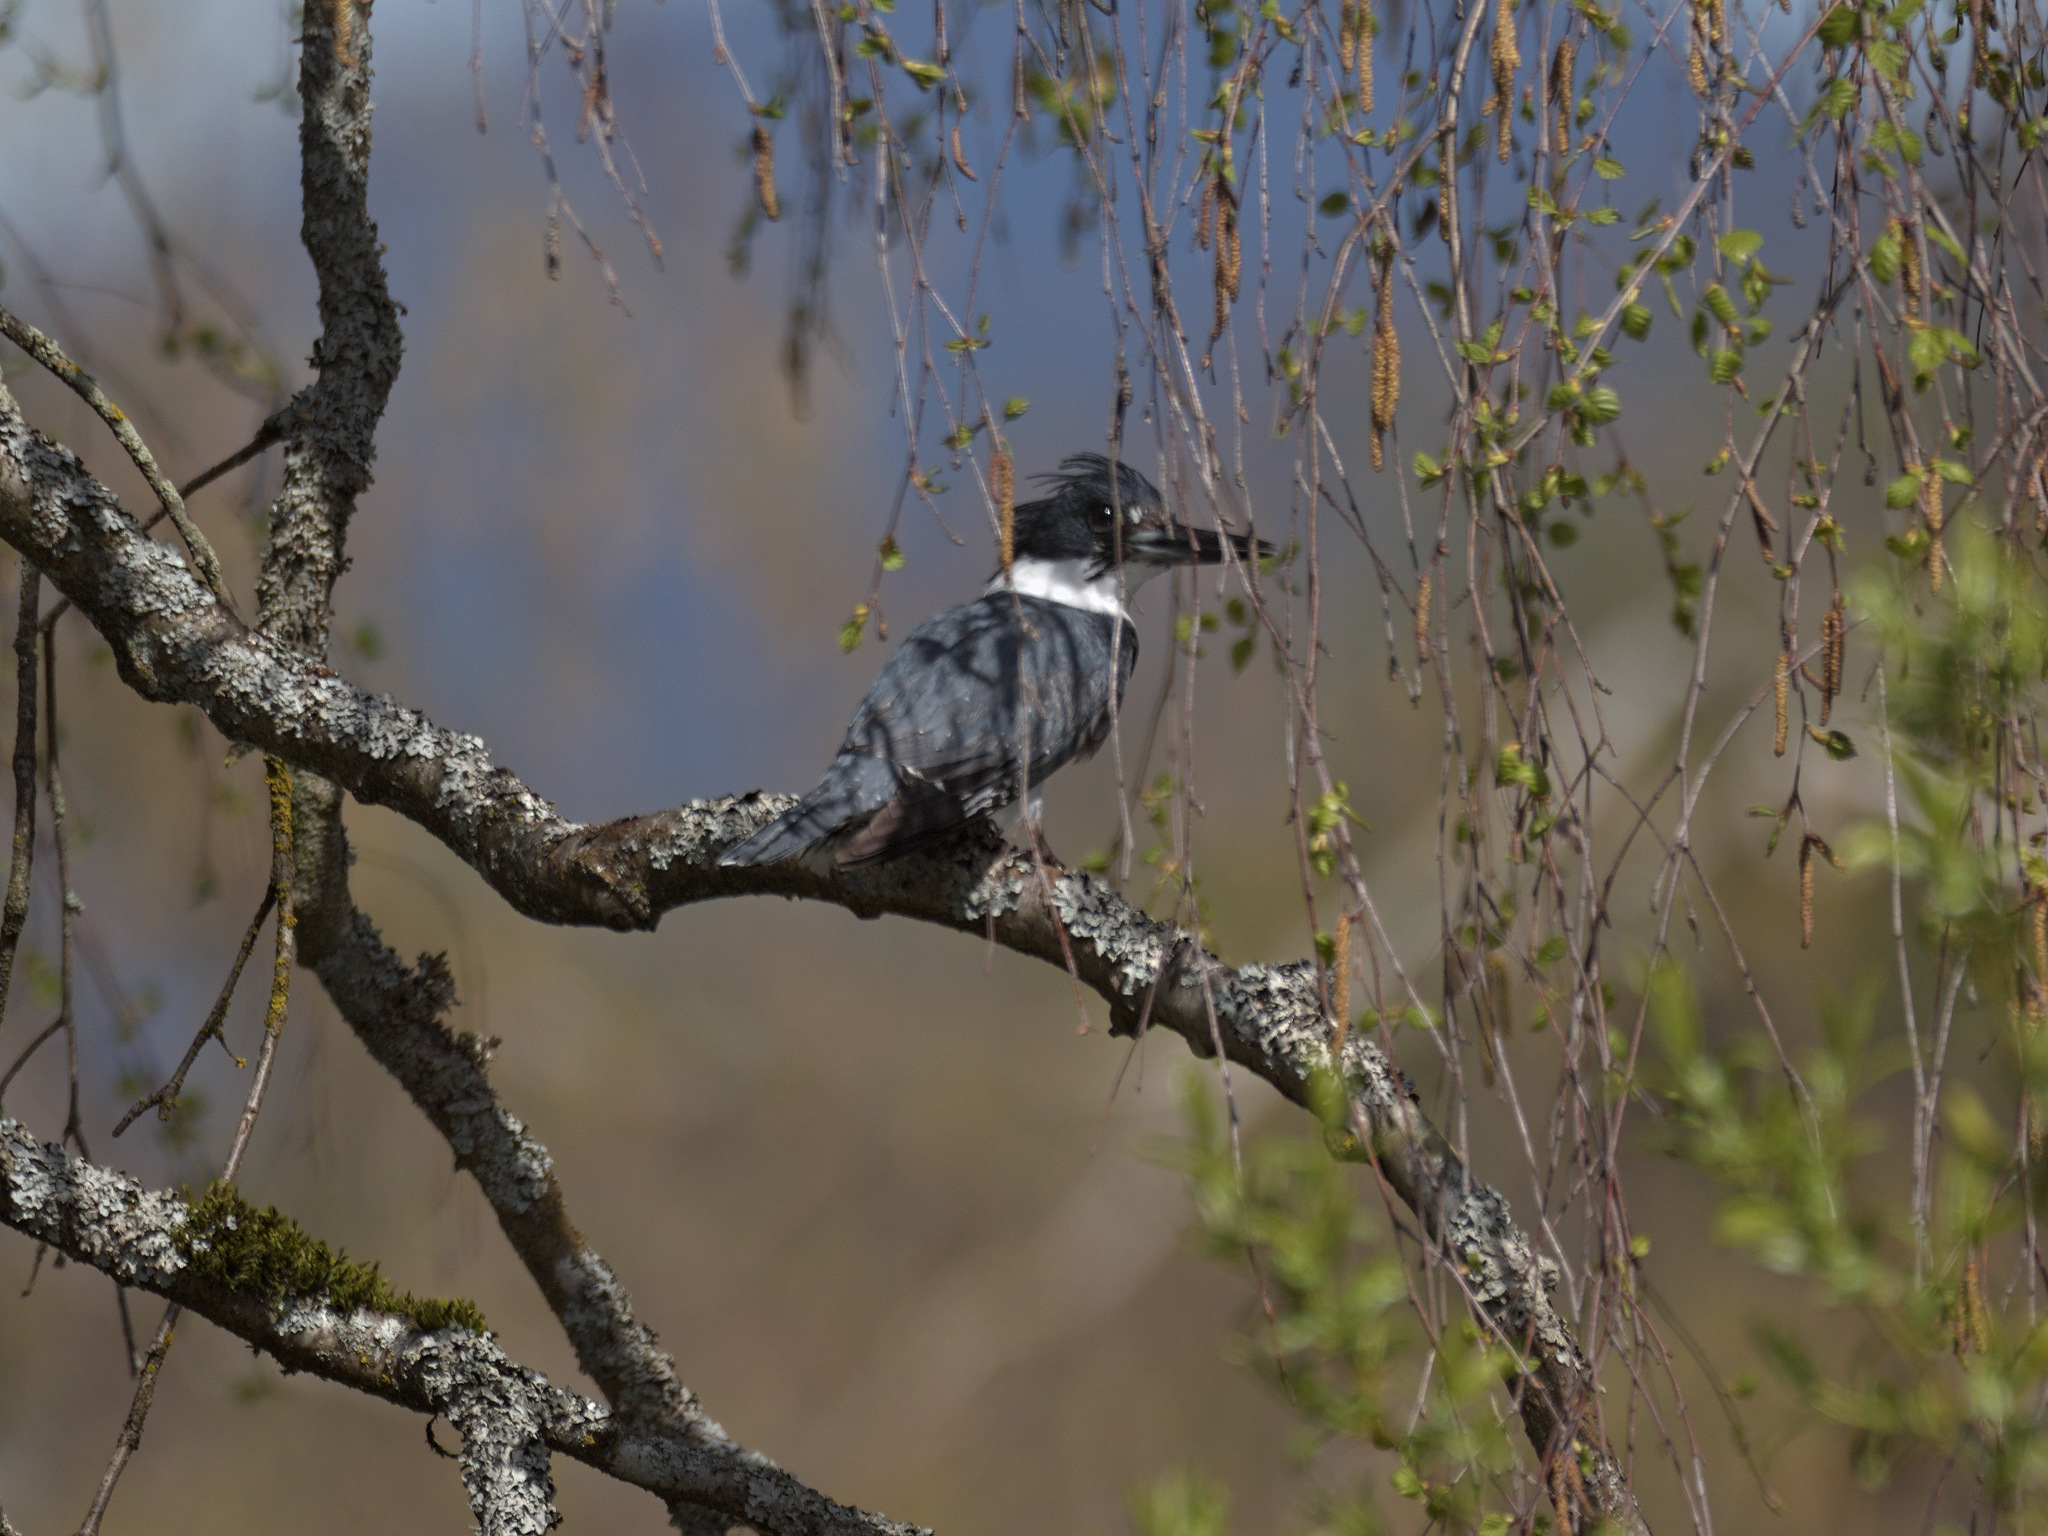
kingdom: Animalia
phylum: Chordata
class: Aves
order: Coraciiformes
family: Alcedinidae
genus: Megaceryle
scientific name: Megaceryle alcyon
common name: Belted kingfisher
